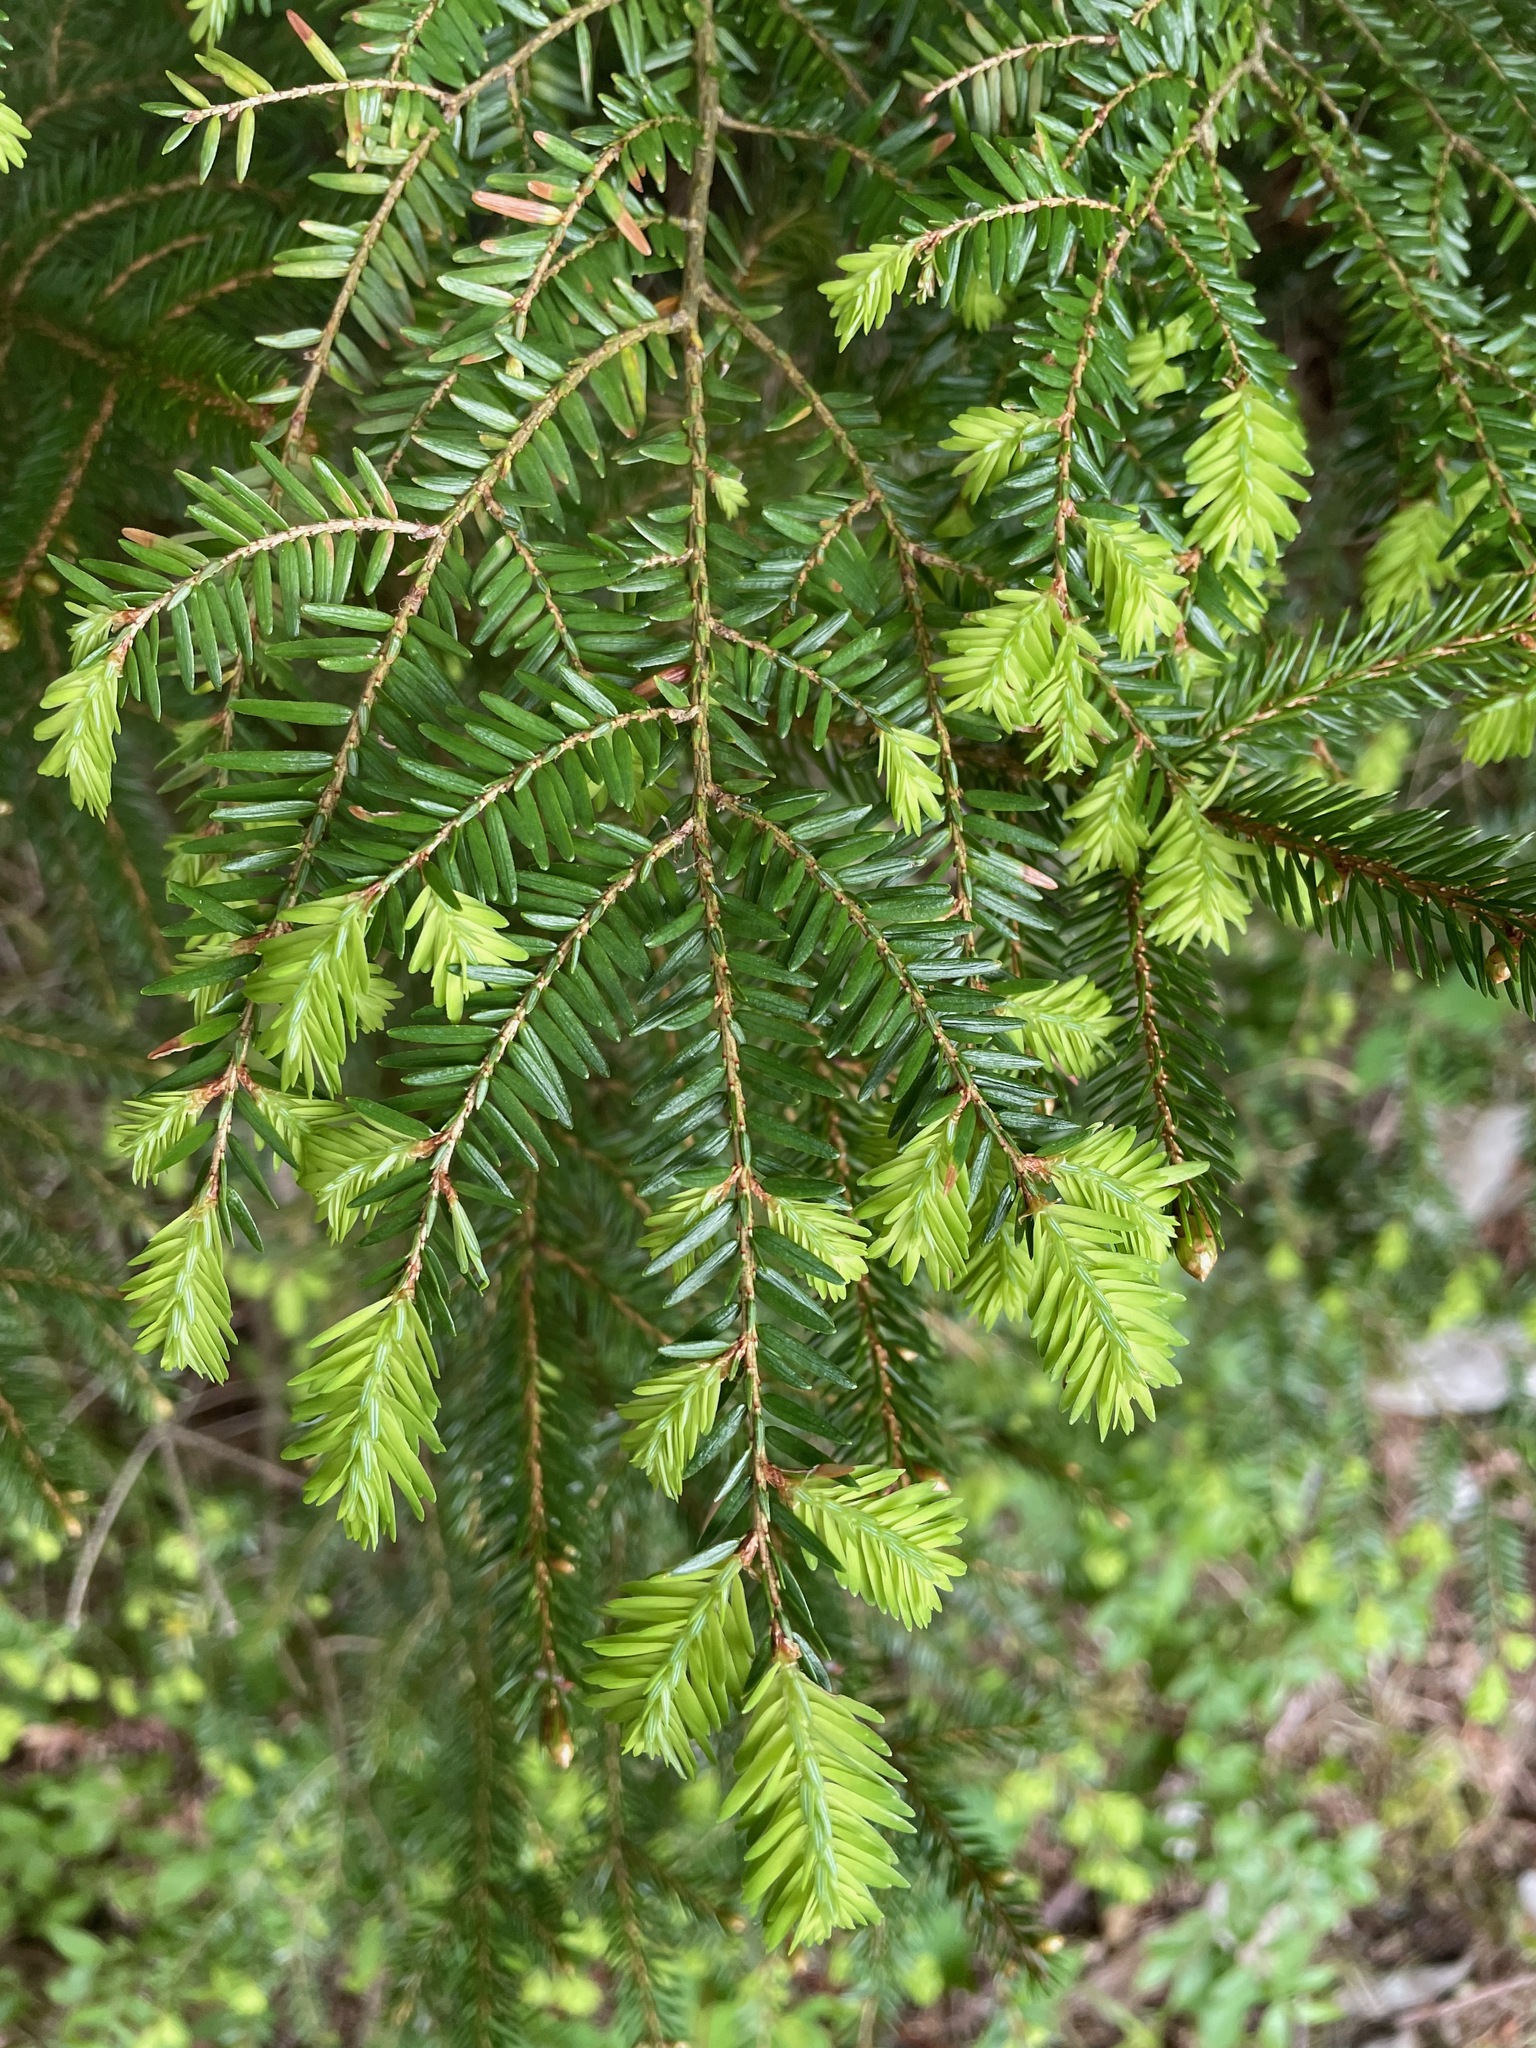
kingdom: Plantae
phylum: Tracheophyta
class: Pinopsida
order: Pinales
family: Pinaceae
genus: Tsuga
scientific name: Tsuga canadensis
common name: Eastern hemlock
